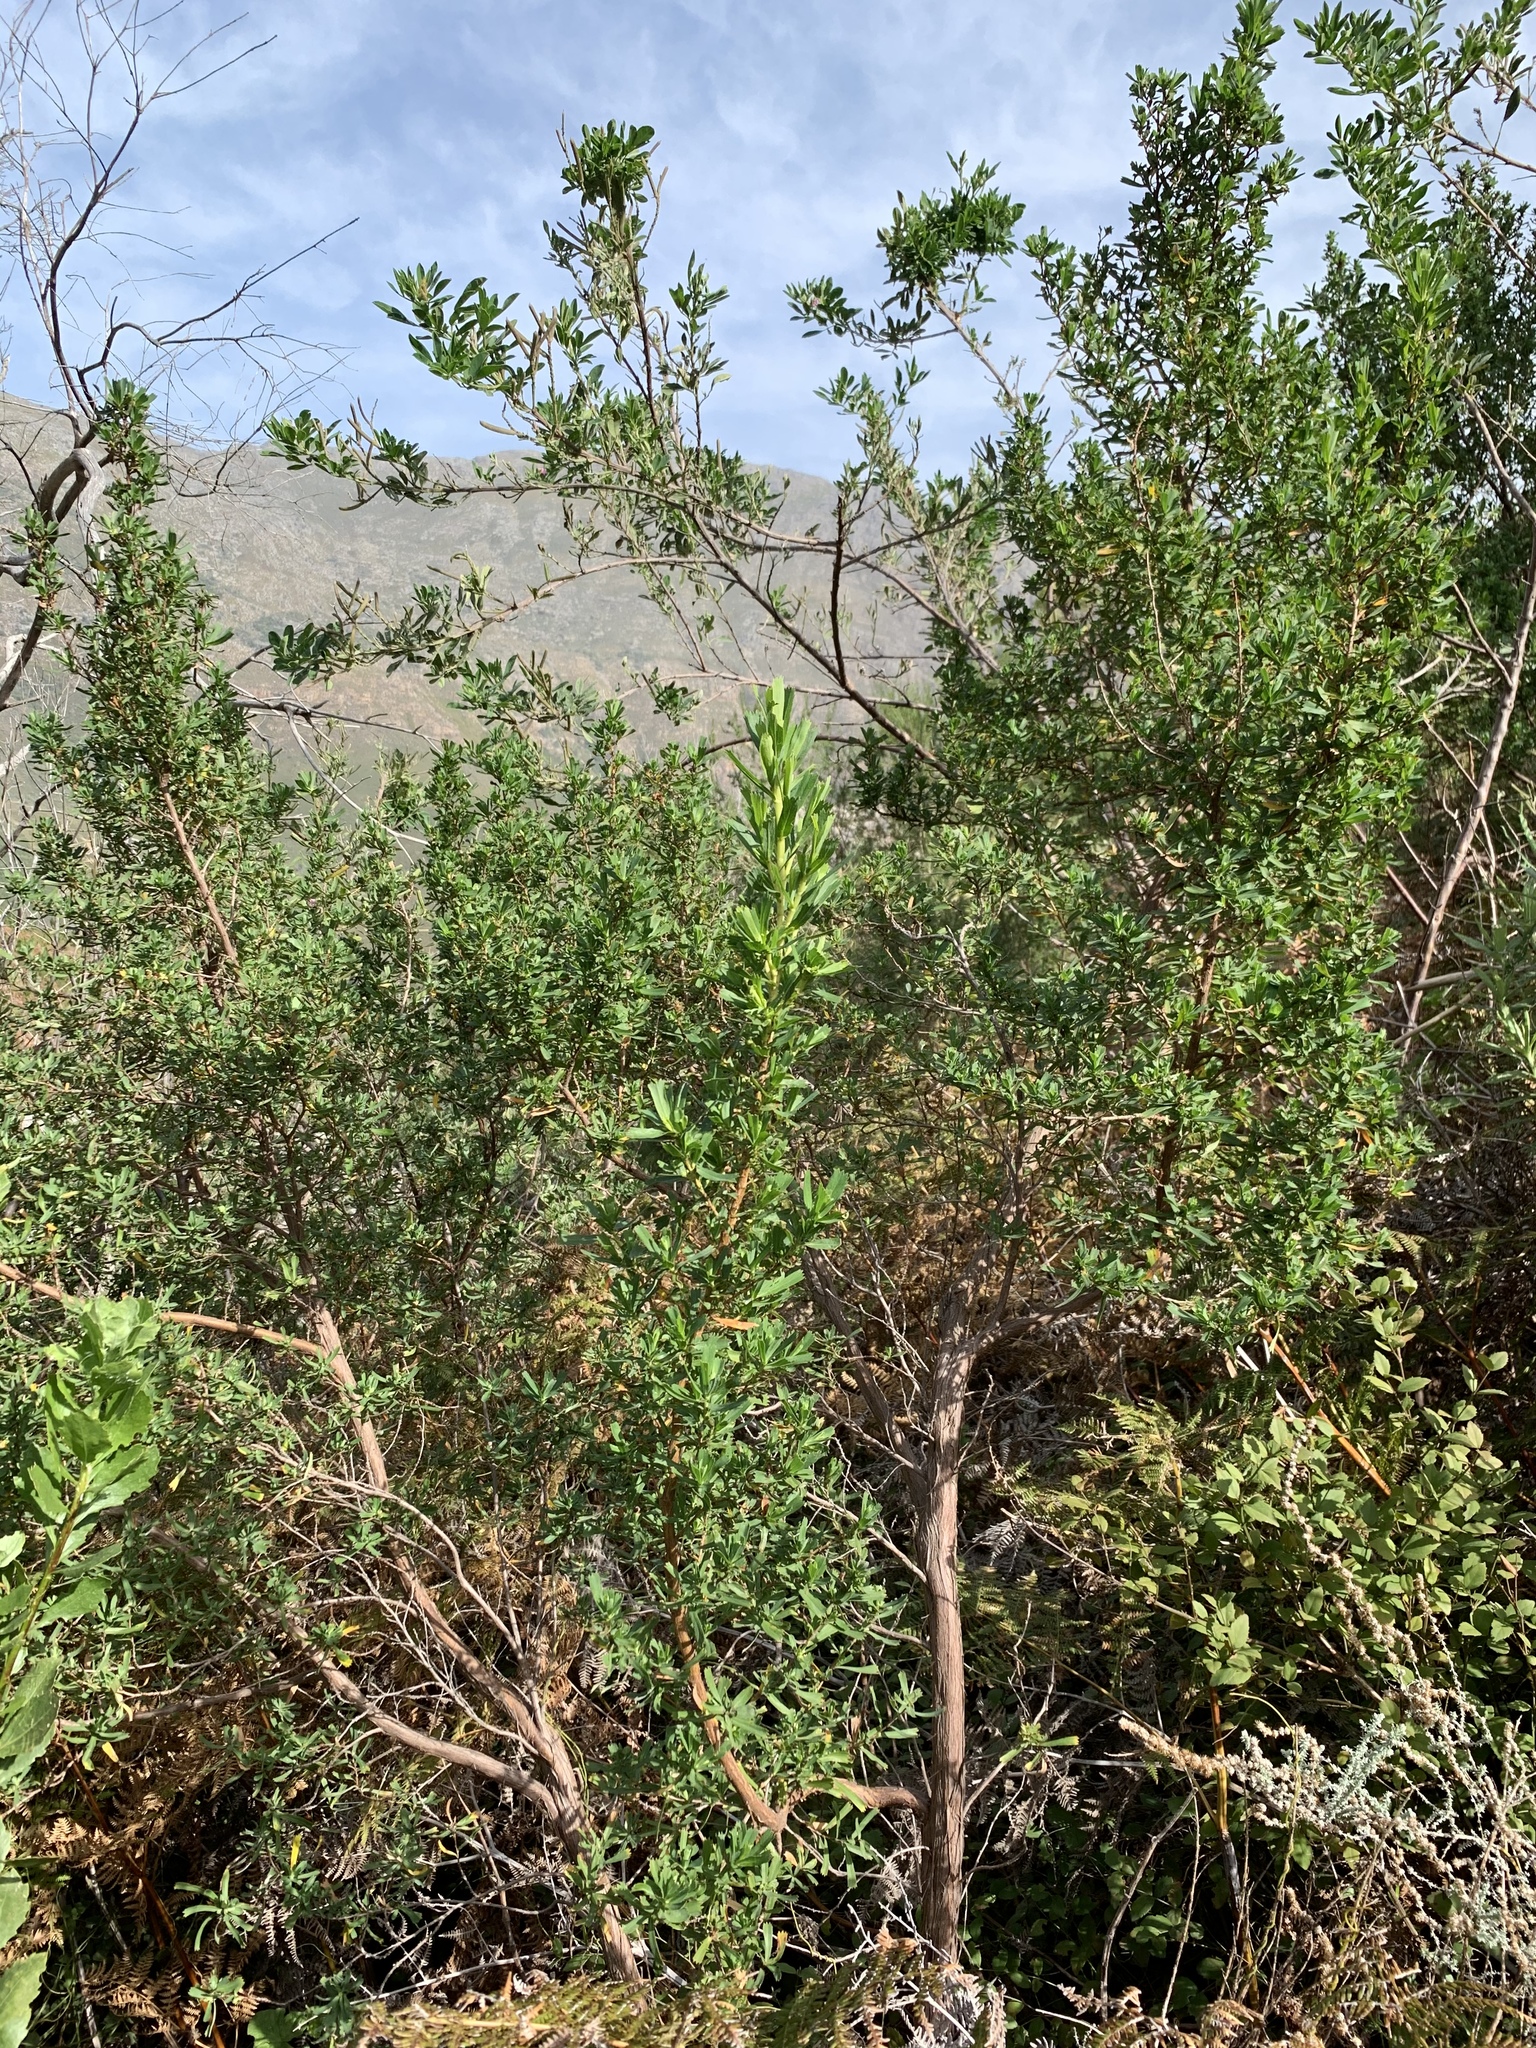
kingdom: Plantae
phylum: Tracheophyta
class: Magnoliopsida
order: Rosales
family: Rosaceae
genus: Cliffortia
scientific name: Cliffortia cuneata
